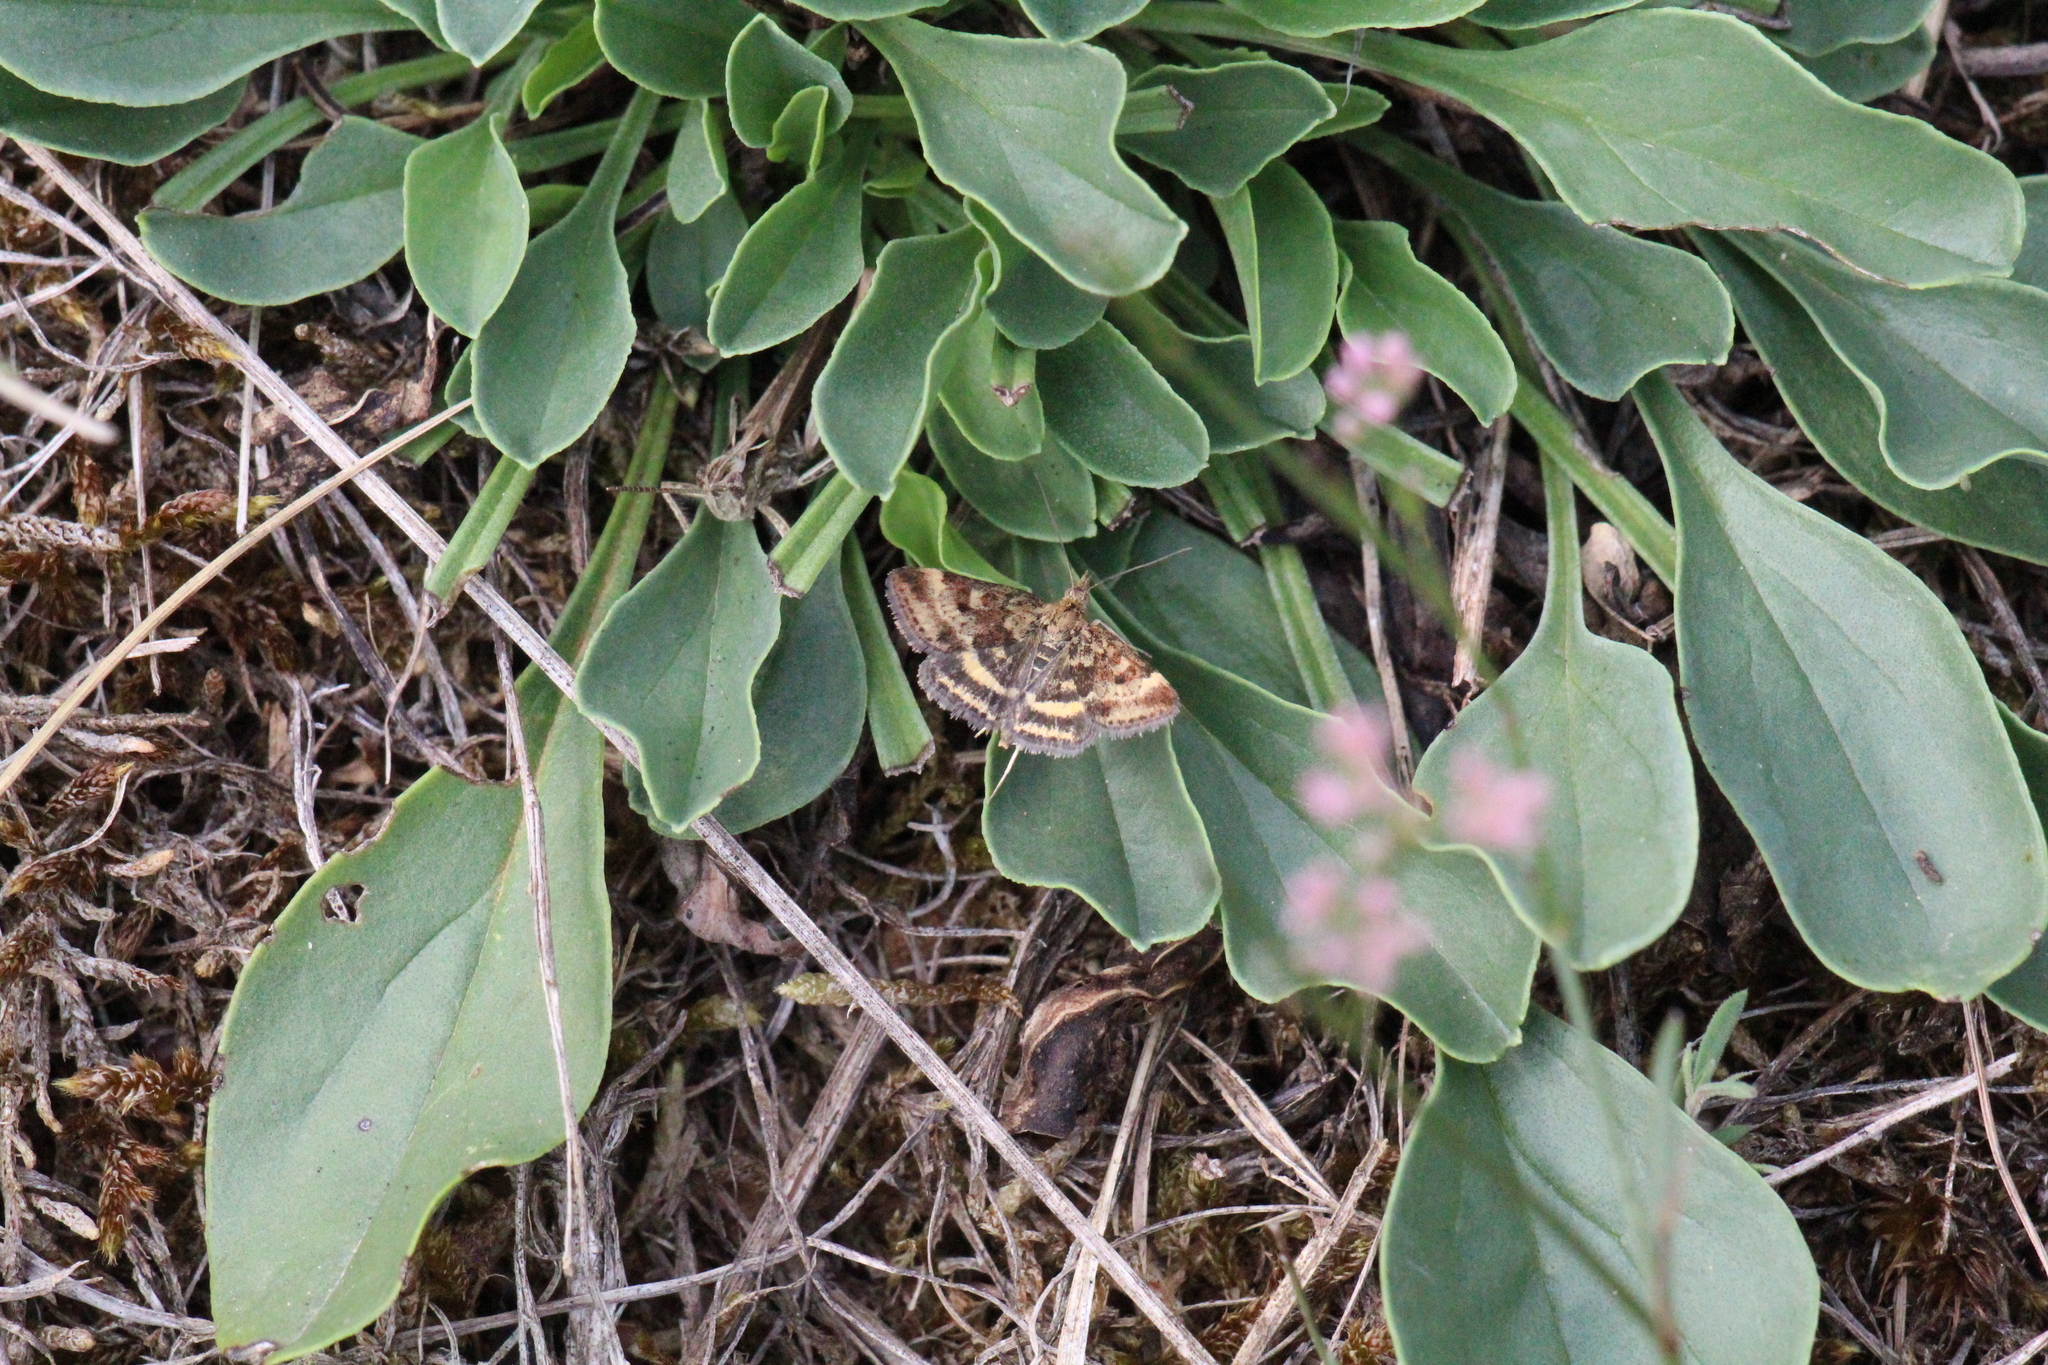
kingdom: Animalia
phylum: Arthropoda
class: Insecta
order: Lepidoptera
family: Crambidae
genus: Pyrausta
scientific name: Pyrausta despicata
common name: Straw-barred pearl
